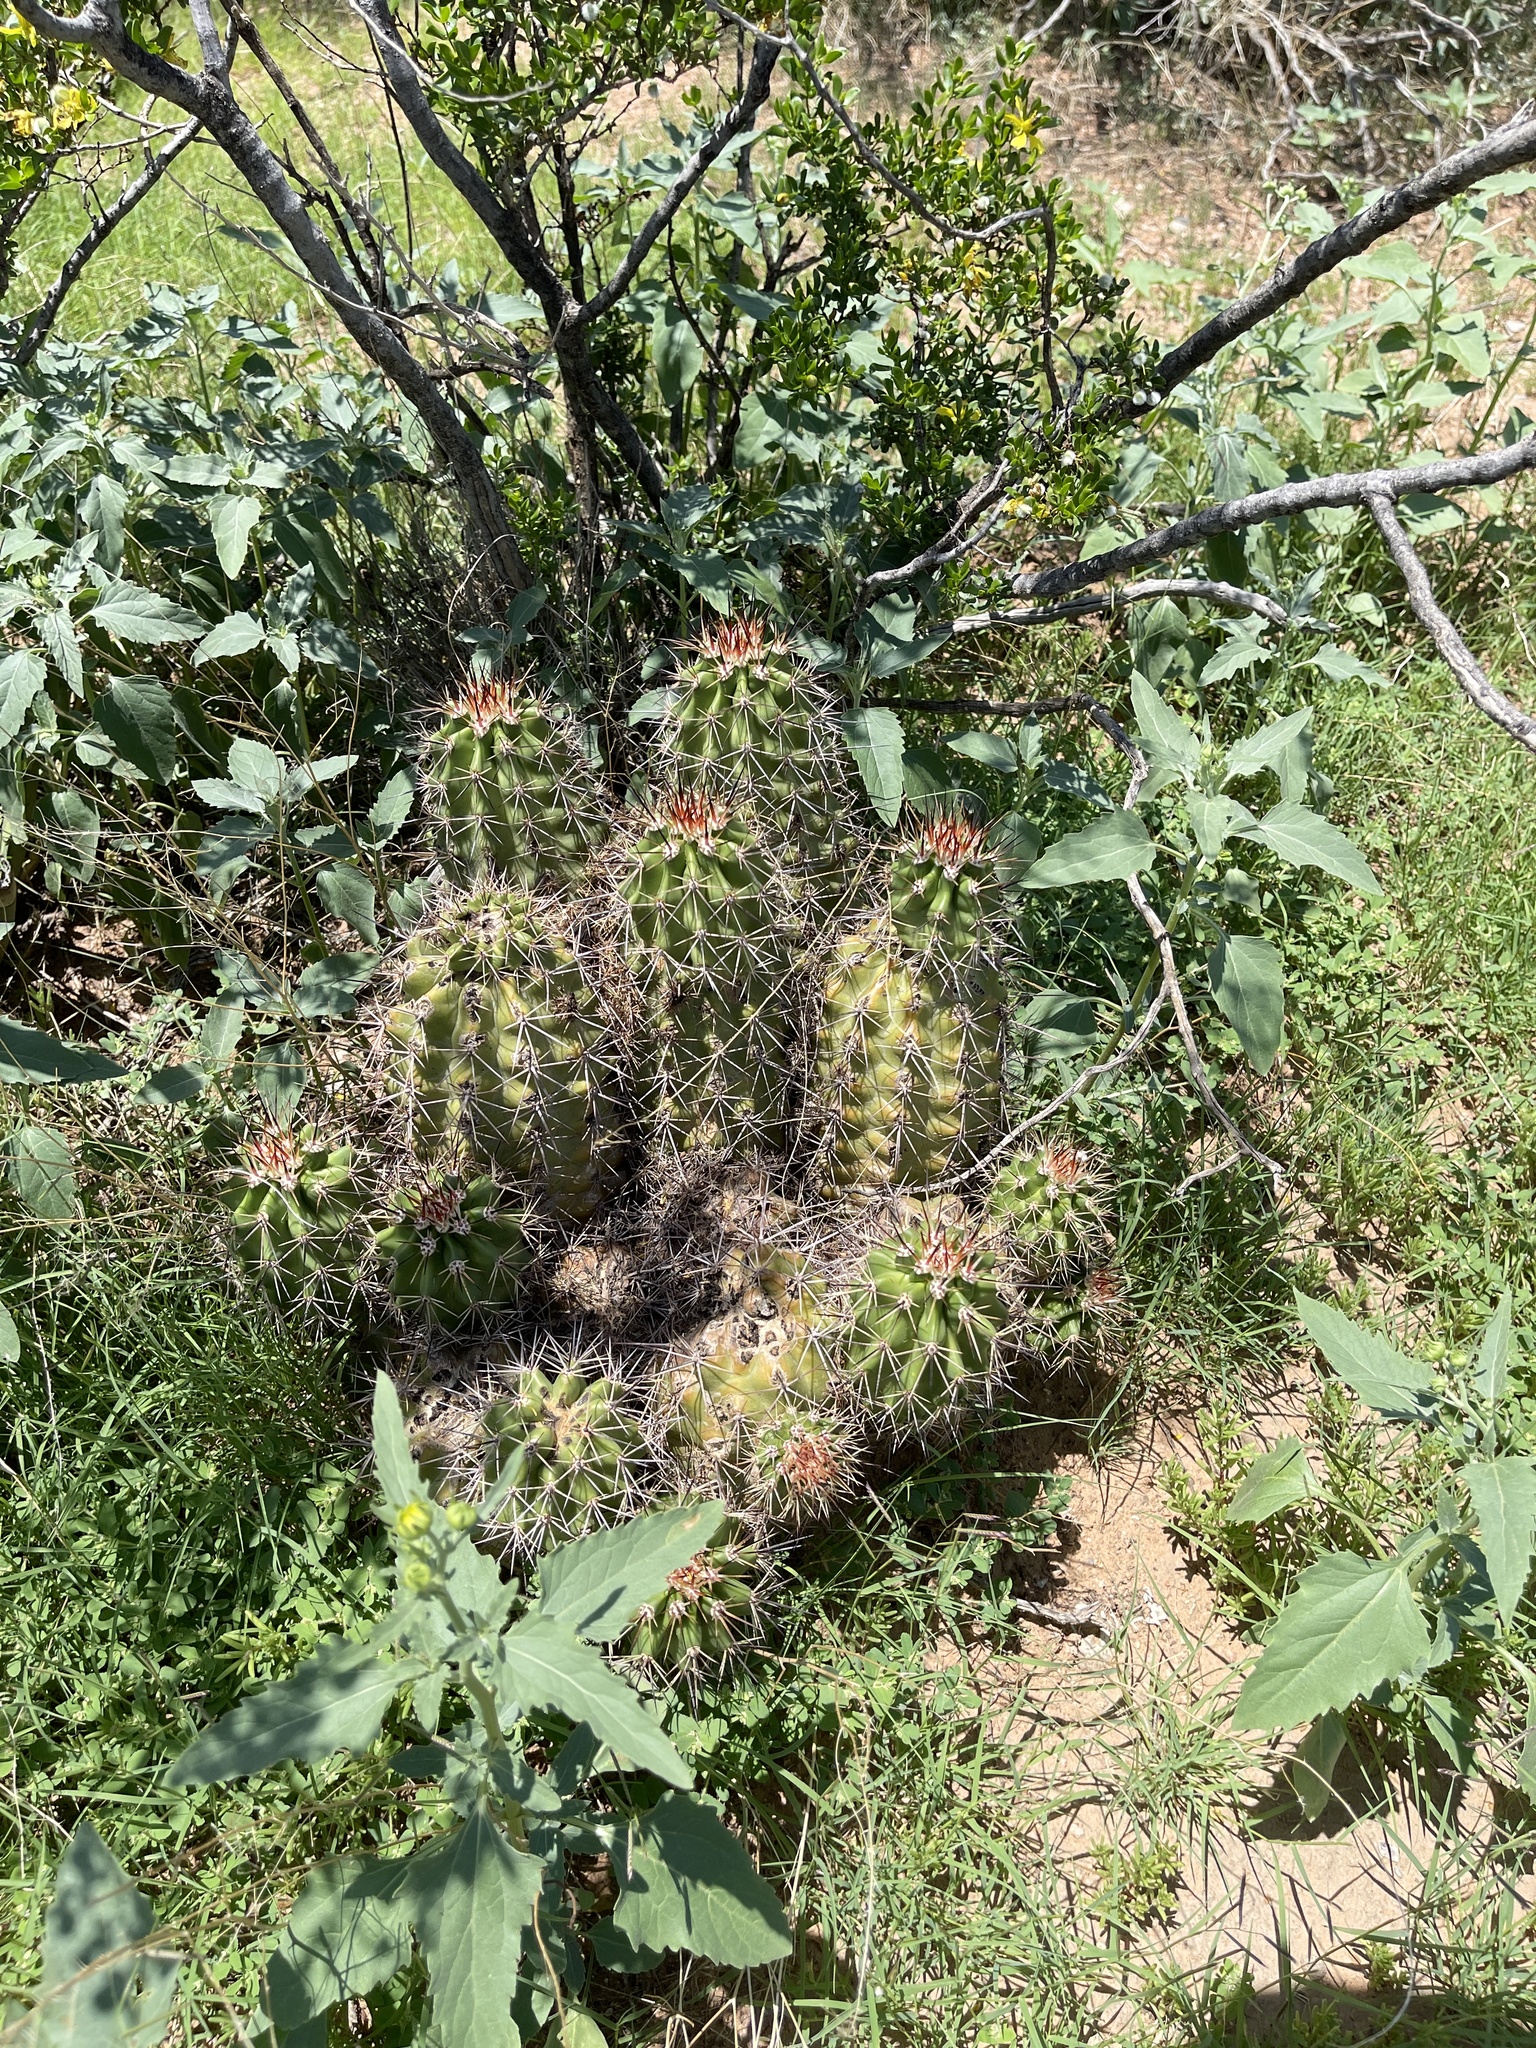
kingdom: Plantae
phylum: Tracheophyta
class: Magnoliopsida
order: Caryophyllales
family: Cactaceae
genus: Echinocereus
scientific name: Echinocereus coccineus
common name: Scarlet hedgehog cactus
